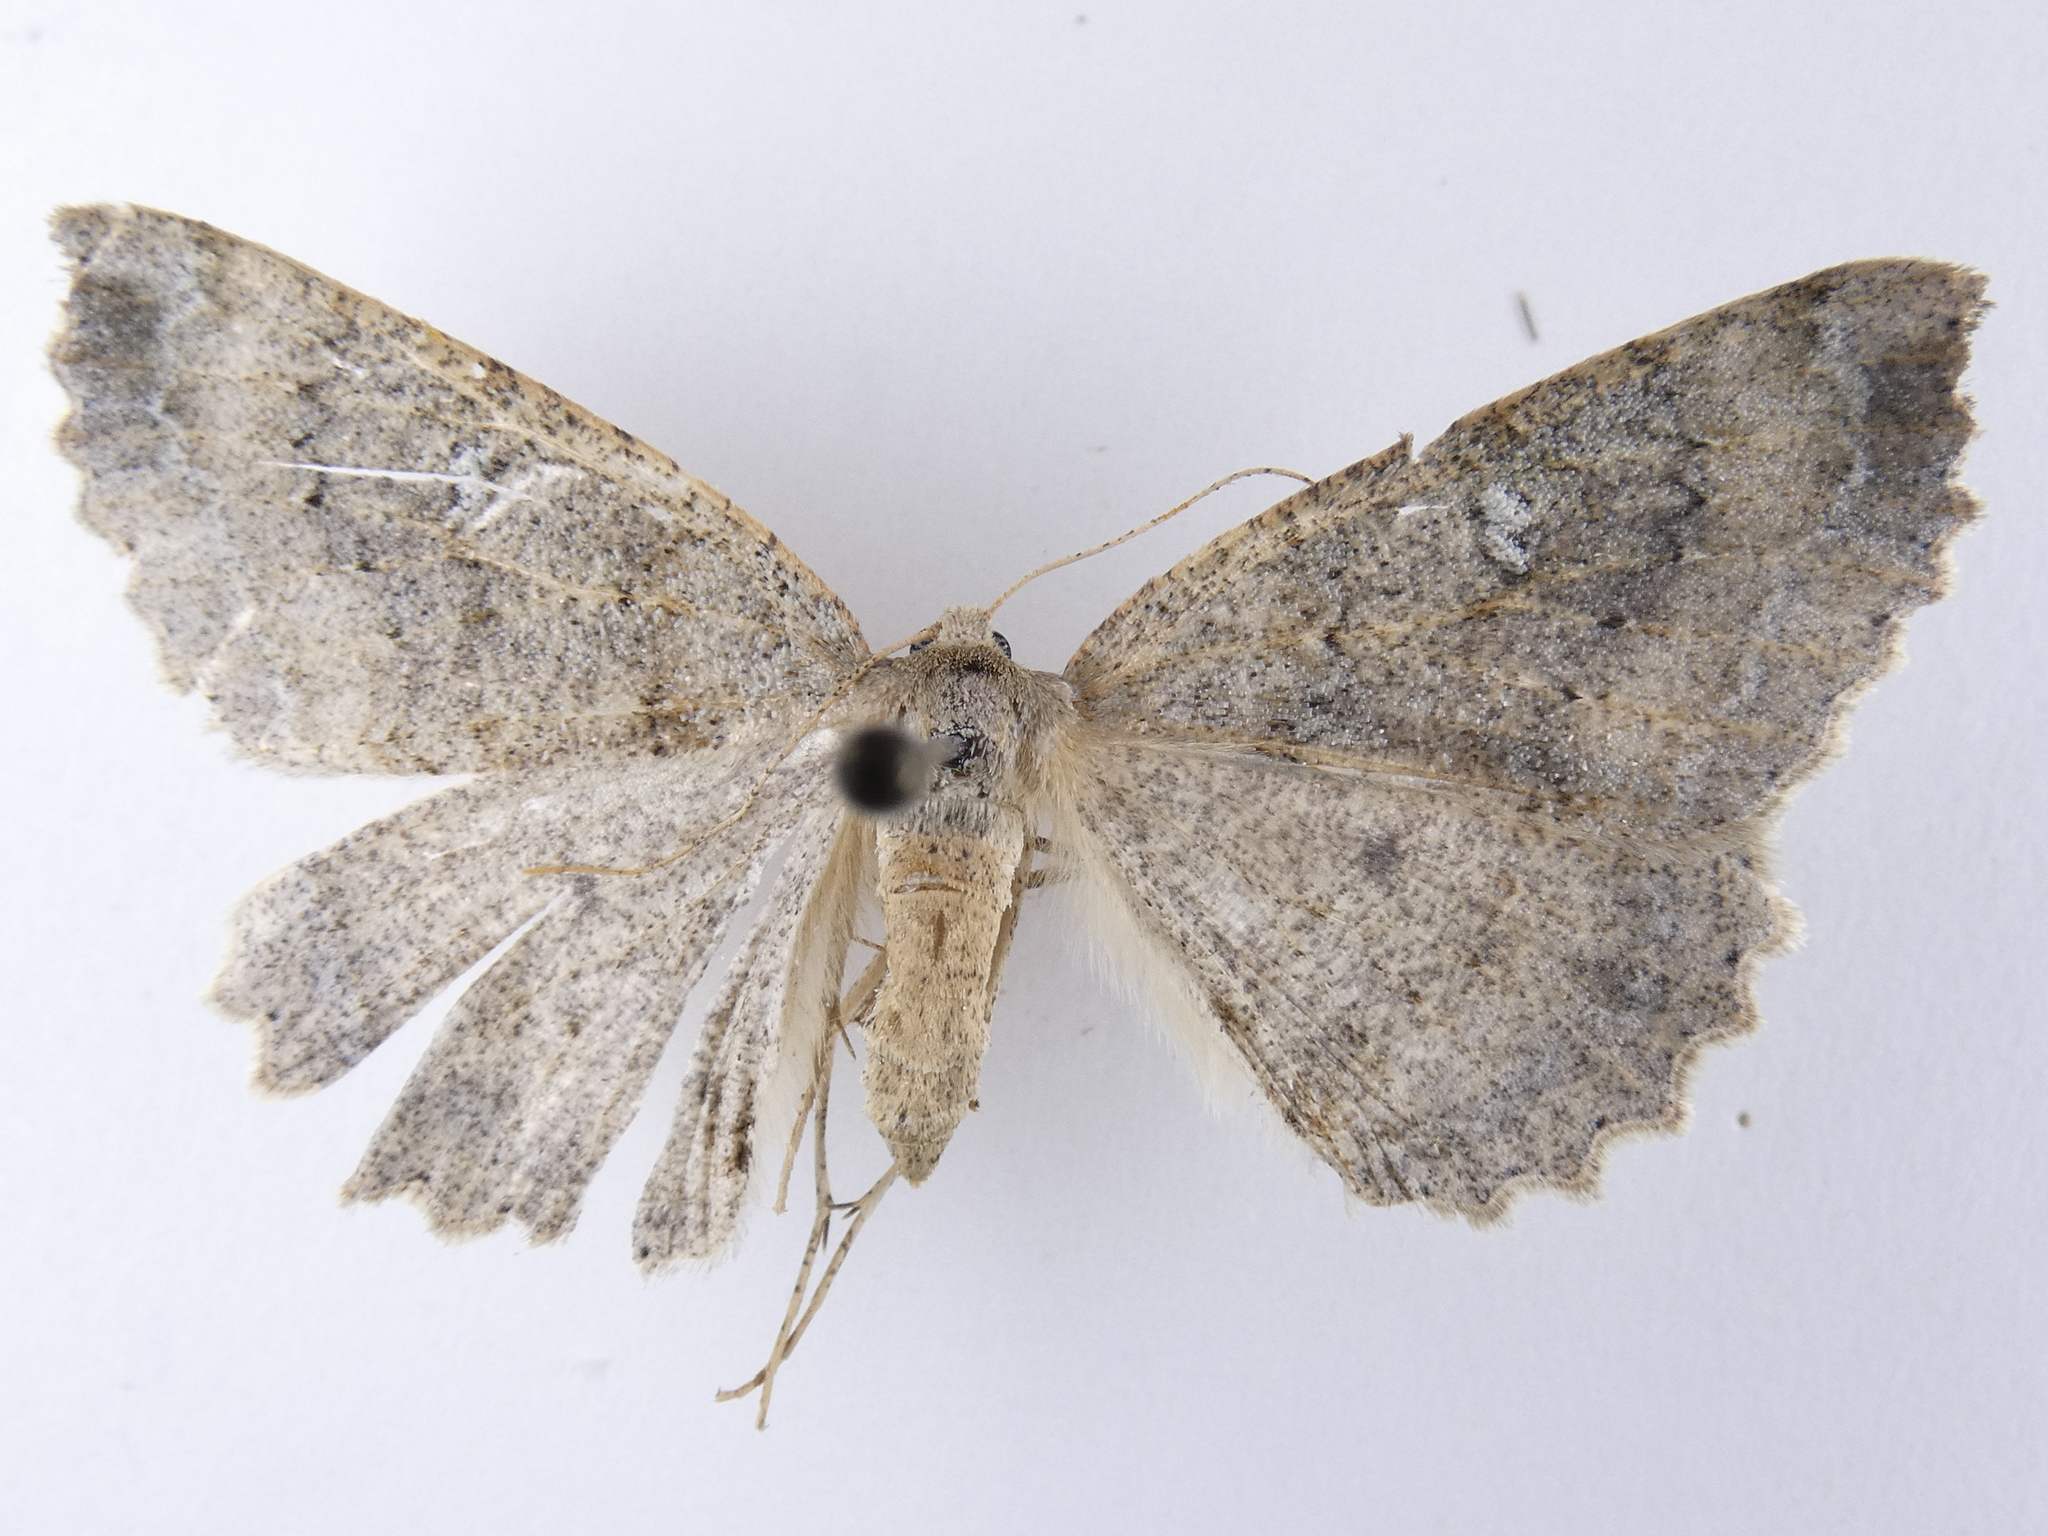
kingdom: Animalia
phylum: Arthropoda
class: Insecta
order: Lepidoptera
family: Geometridae
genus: Cleora
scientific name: Cleora scriptaria
